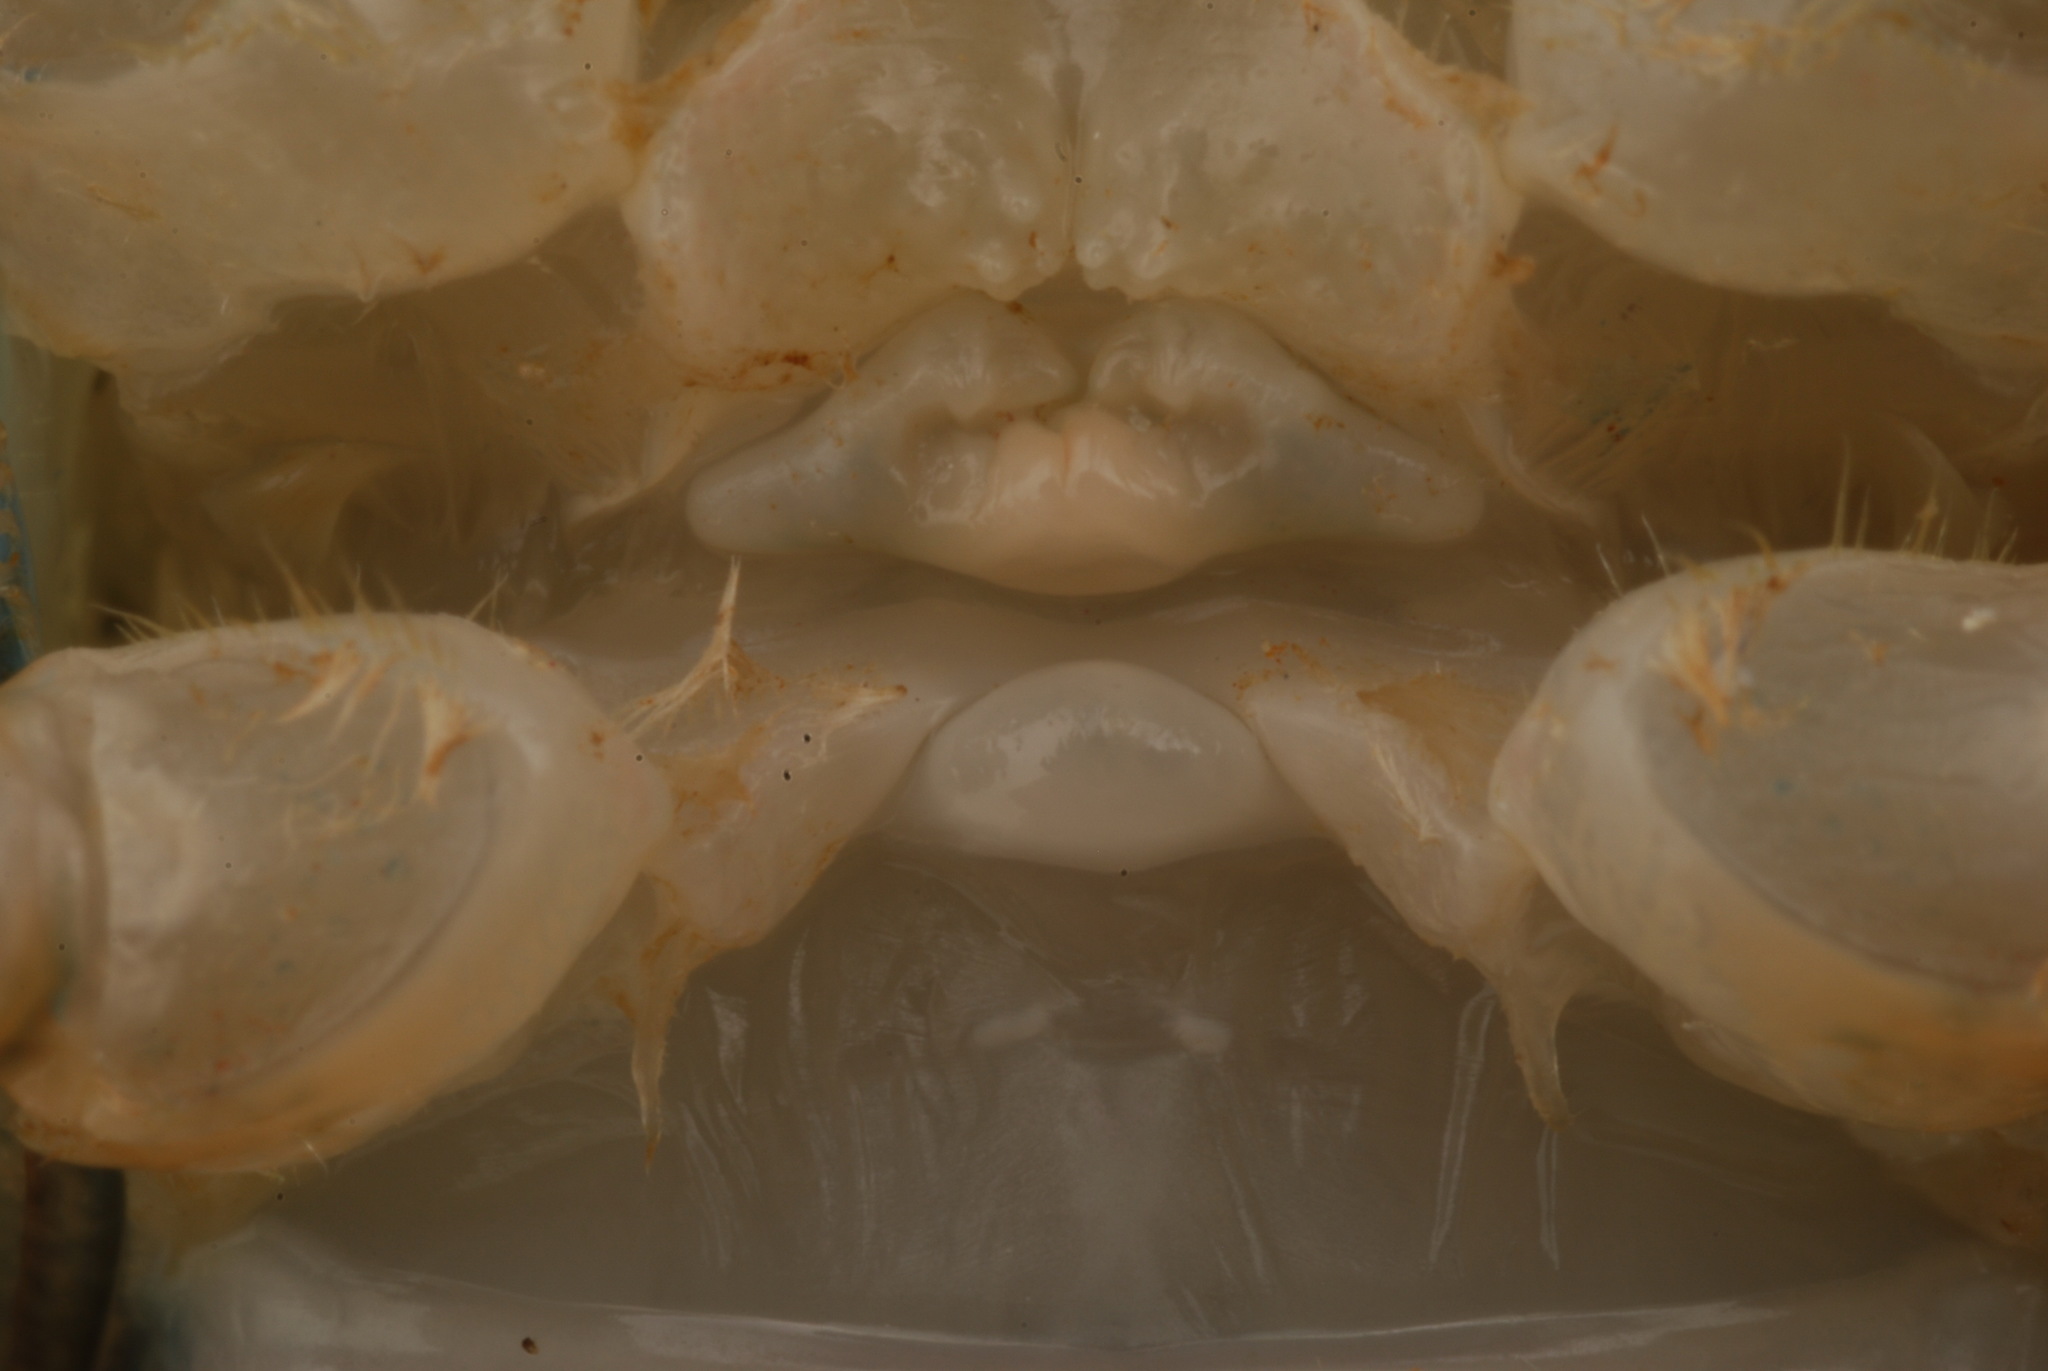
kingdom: Animalia
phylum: Arthropoda
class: Malacostraca
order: Decapoda
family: Cambaridae
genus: Procambarus
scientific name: Procambarus dupratzi
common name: Southwestern creek crayfish
